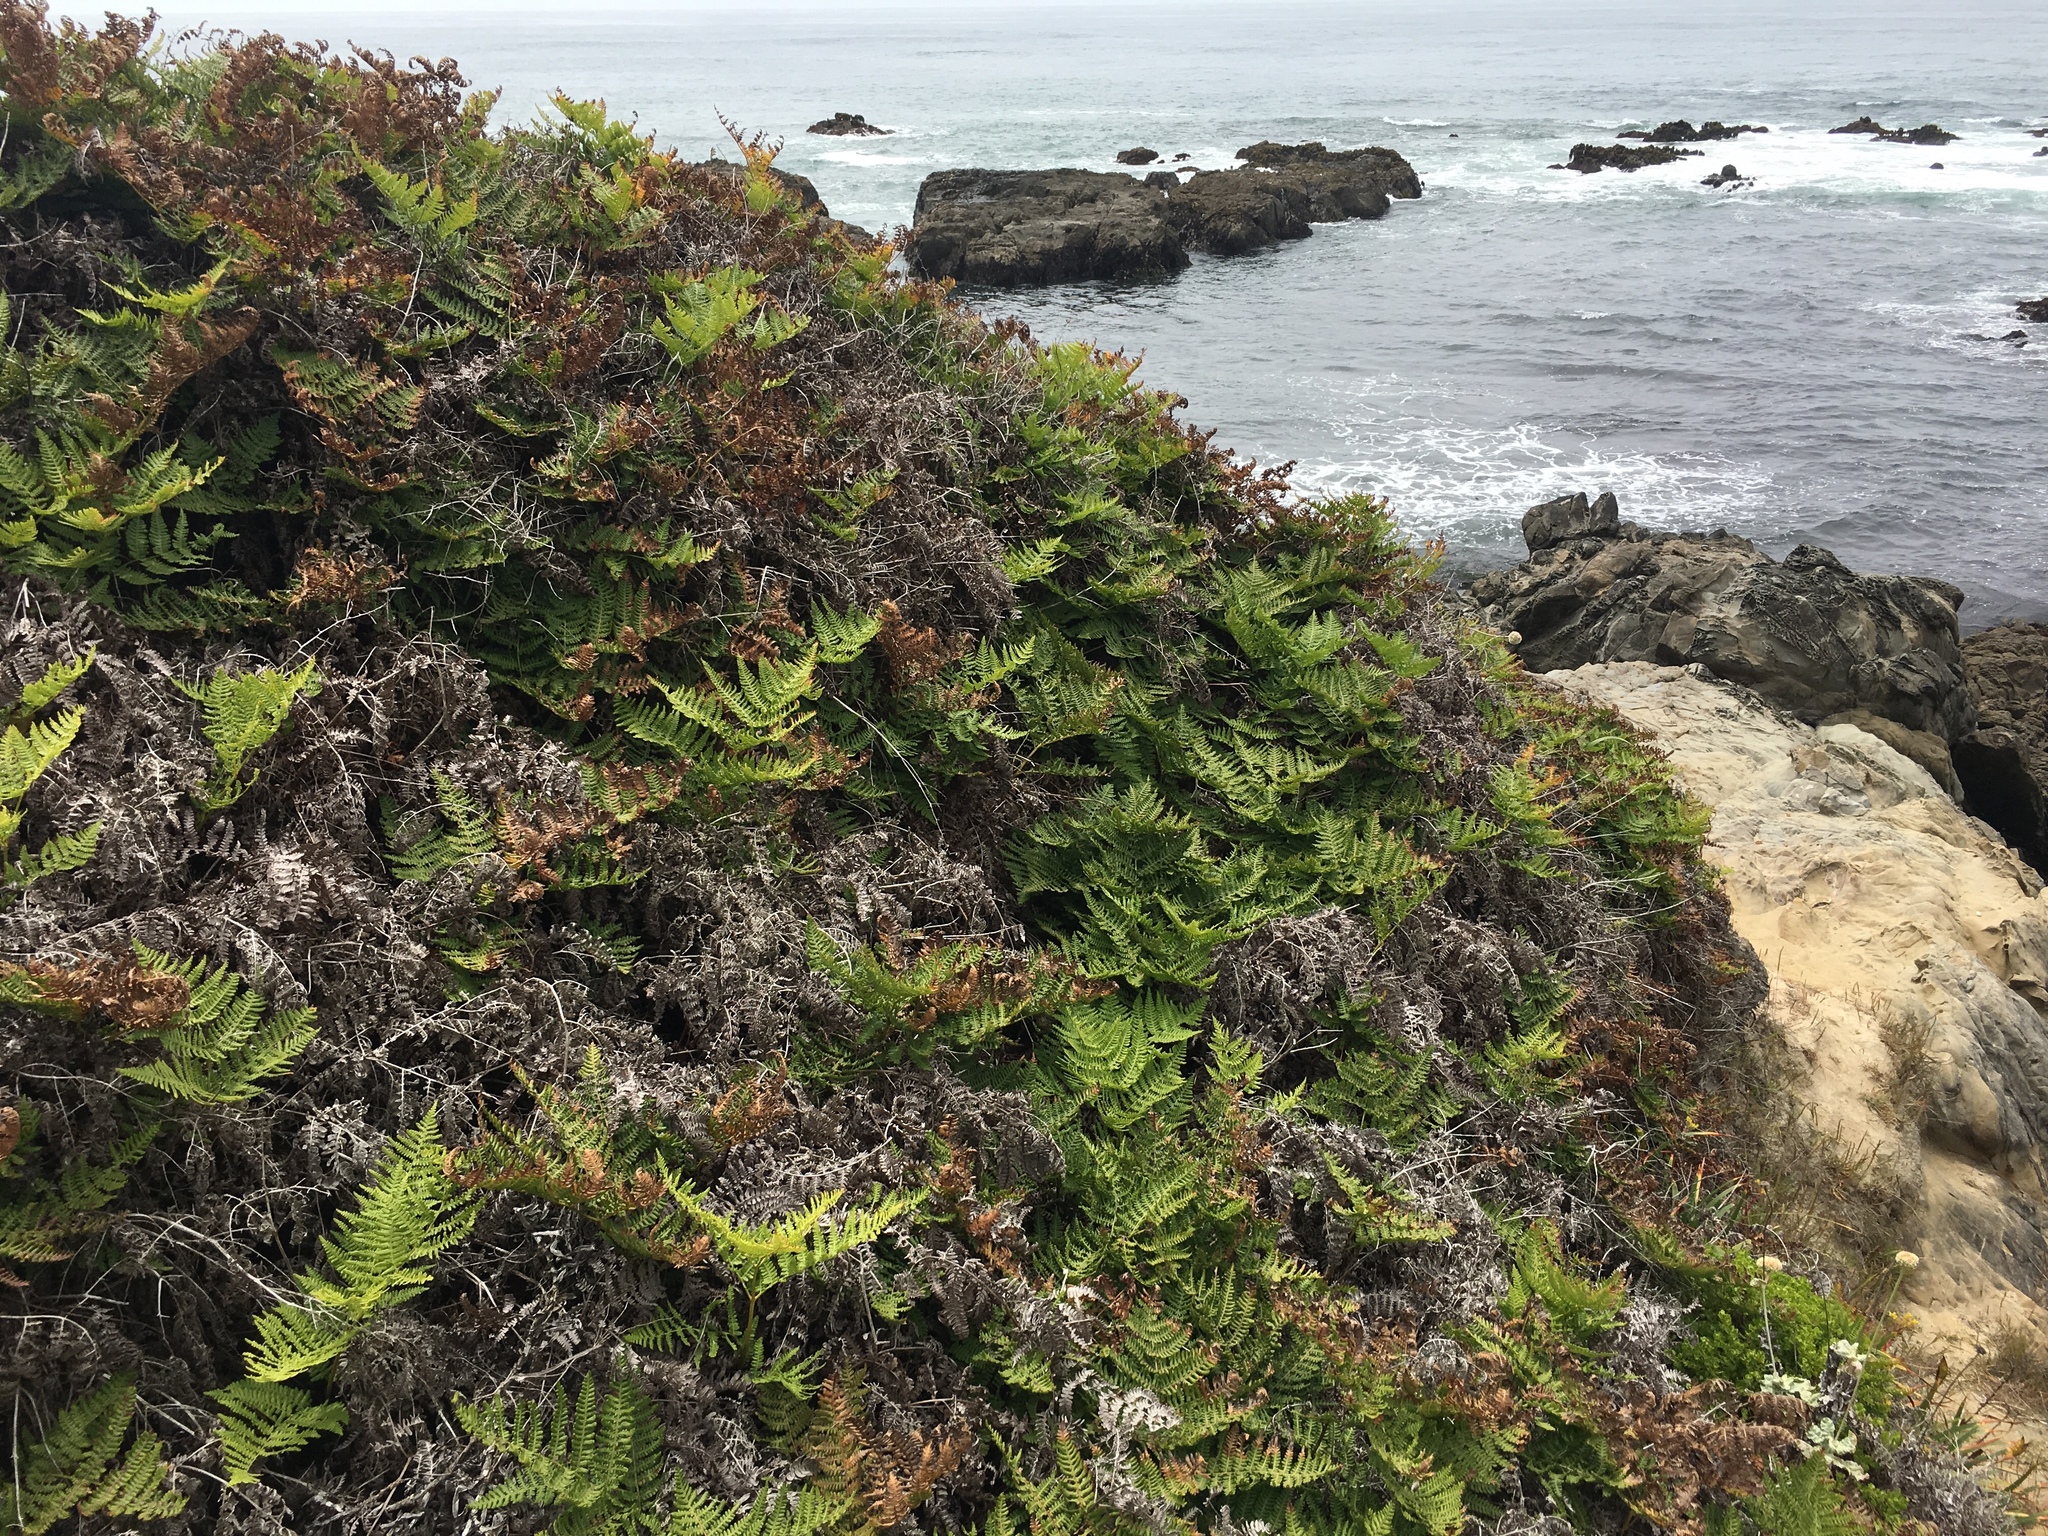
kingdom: Plantae
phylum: Tracheophyta
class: Polypodiopsida
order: Polypodiales
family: Dennstaedtiaceae
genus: Pteridium
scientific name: Pteridium aquilinum
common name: Bracken
